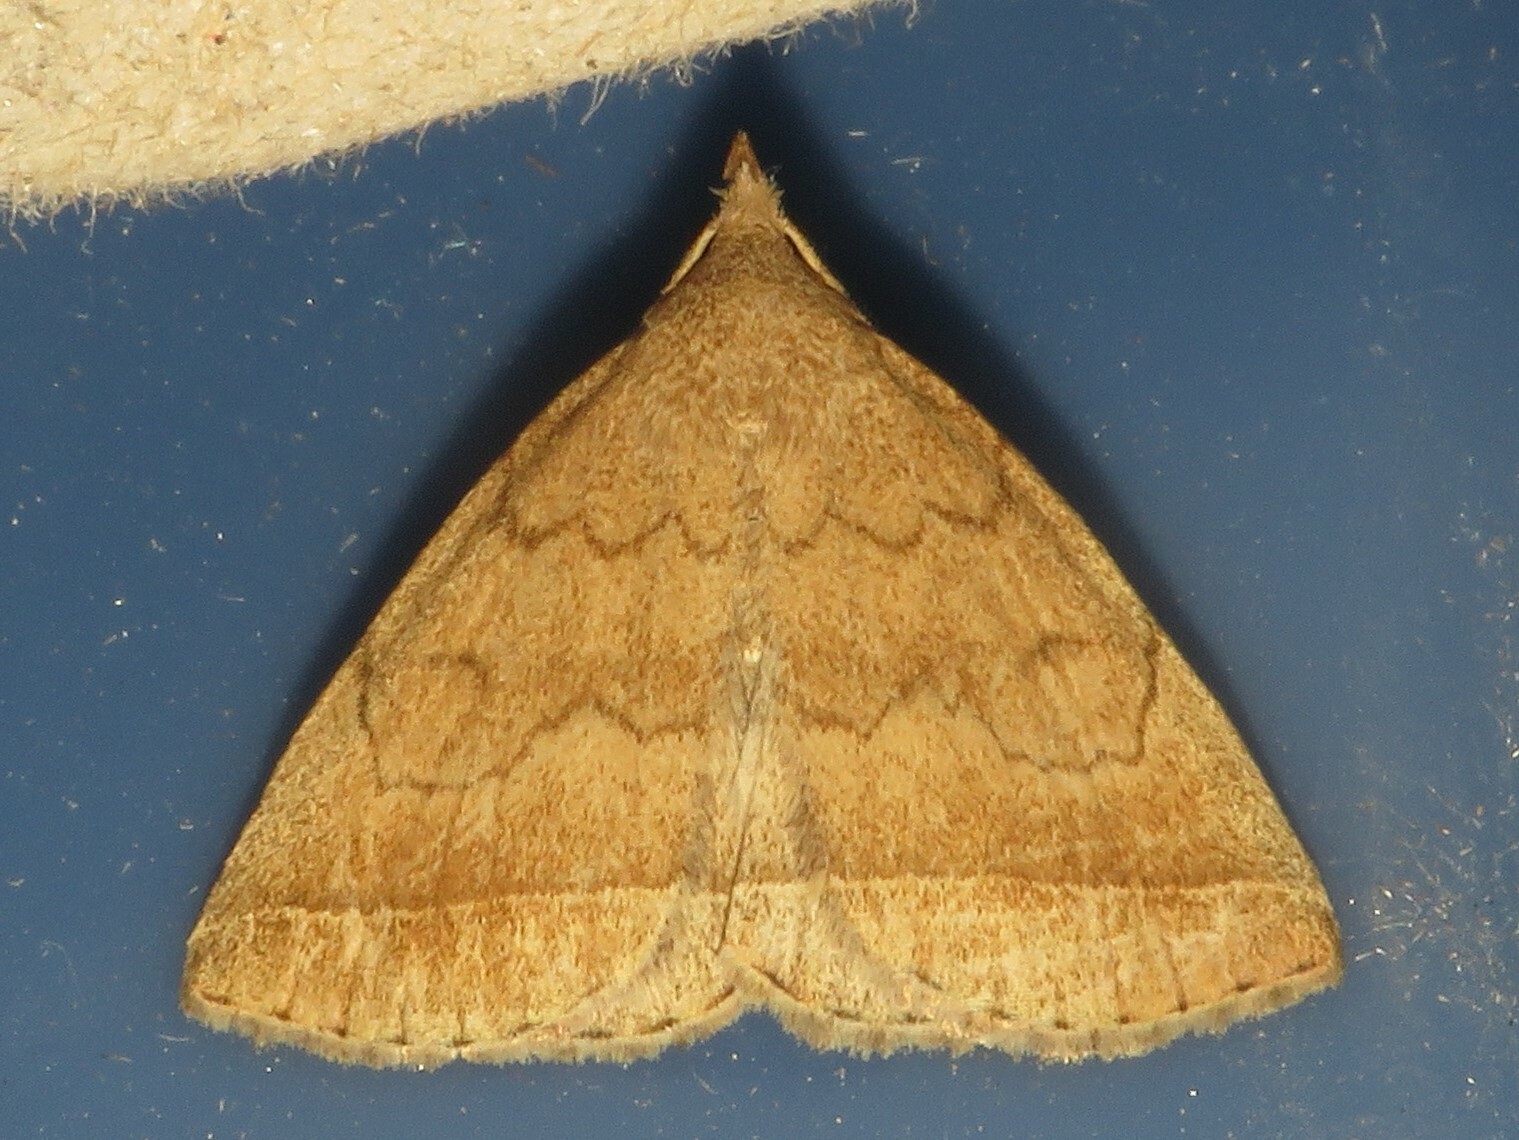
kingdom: Animalia
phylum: Arthropoda
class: Insecta
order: Lepidoptera
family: Erebidae
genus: Zanclognatha
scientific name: Zanclognatha jacchusalis
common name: Yellowish zanclognatha
